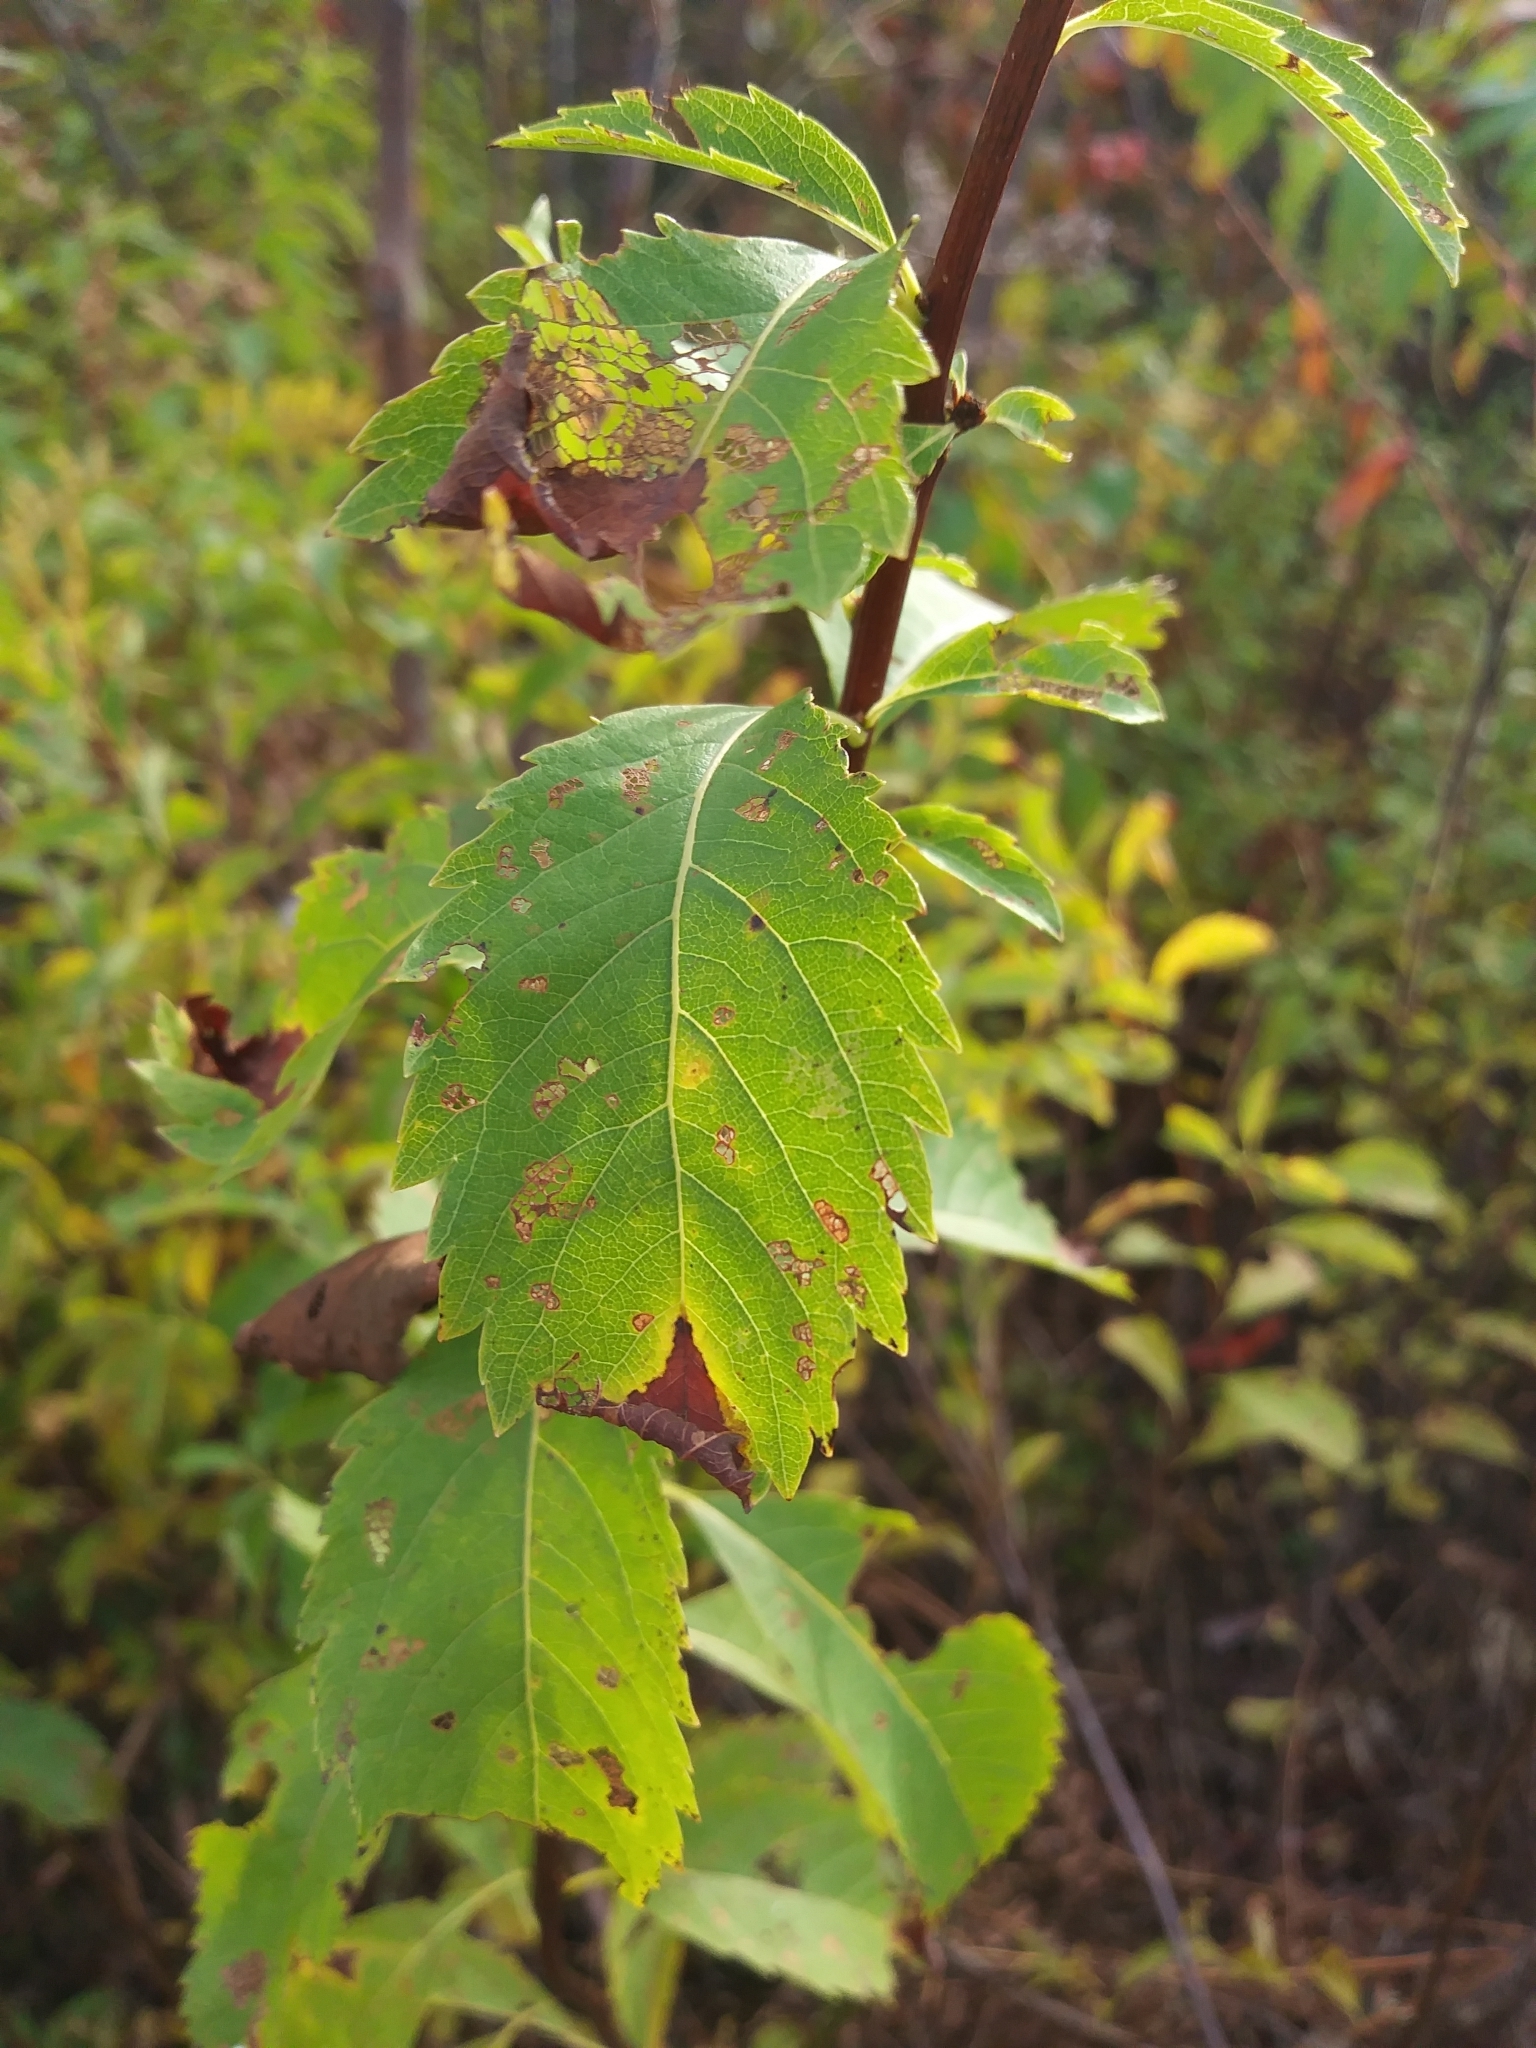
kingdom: Plantae
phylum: Tracheophyta
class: Magnoliopsida
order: Rosales
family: Rosaceae
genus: Spiraea
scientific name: Spiraea alba
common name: Pale bridewort
